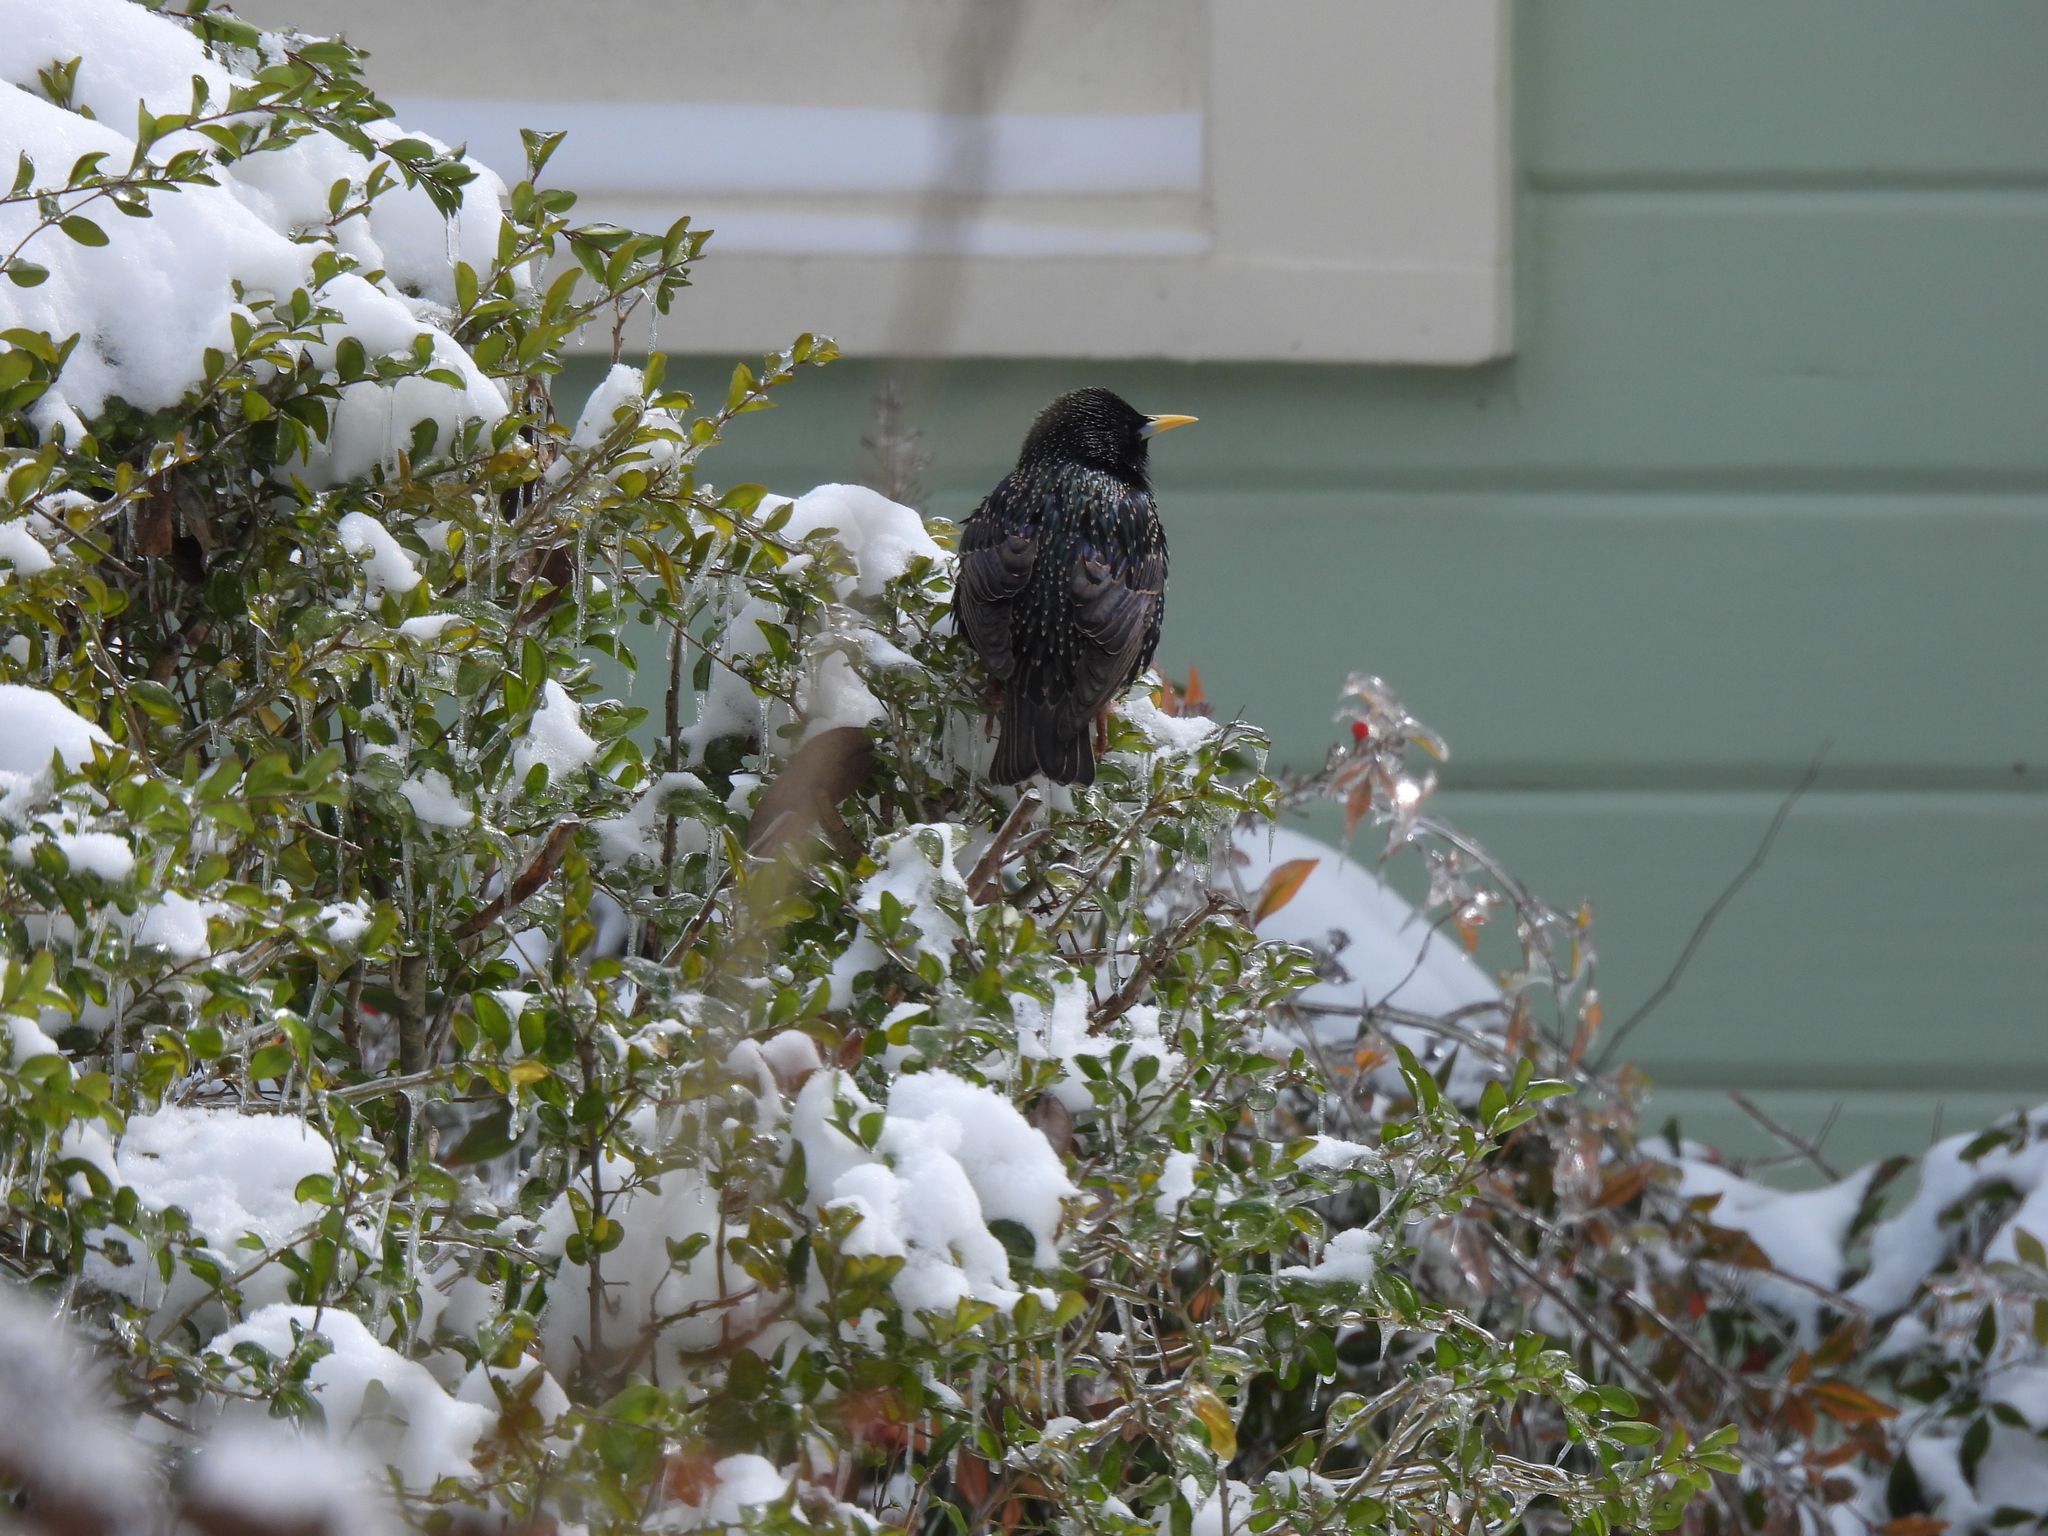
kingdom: Animalia
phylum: Chordata
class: Aves
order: Passeriformes
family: Sturnidae
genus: Sturnus
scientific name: Sturnus vulgaris
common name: Common starling
